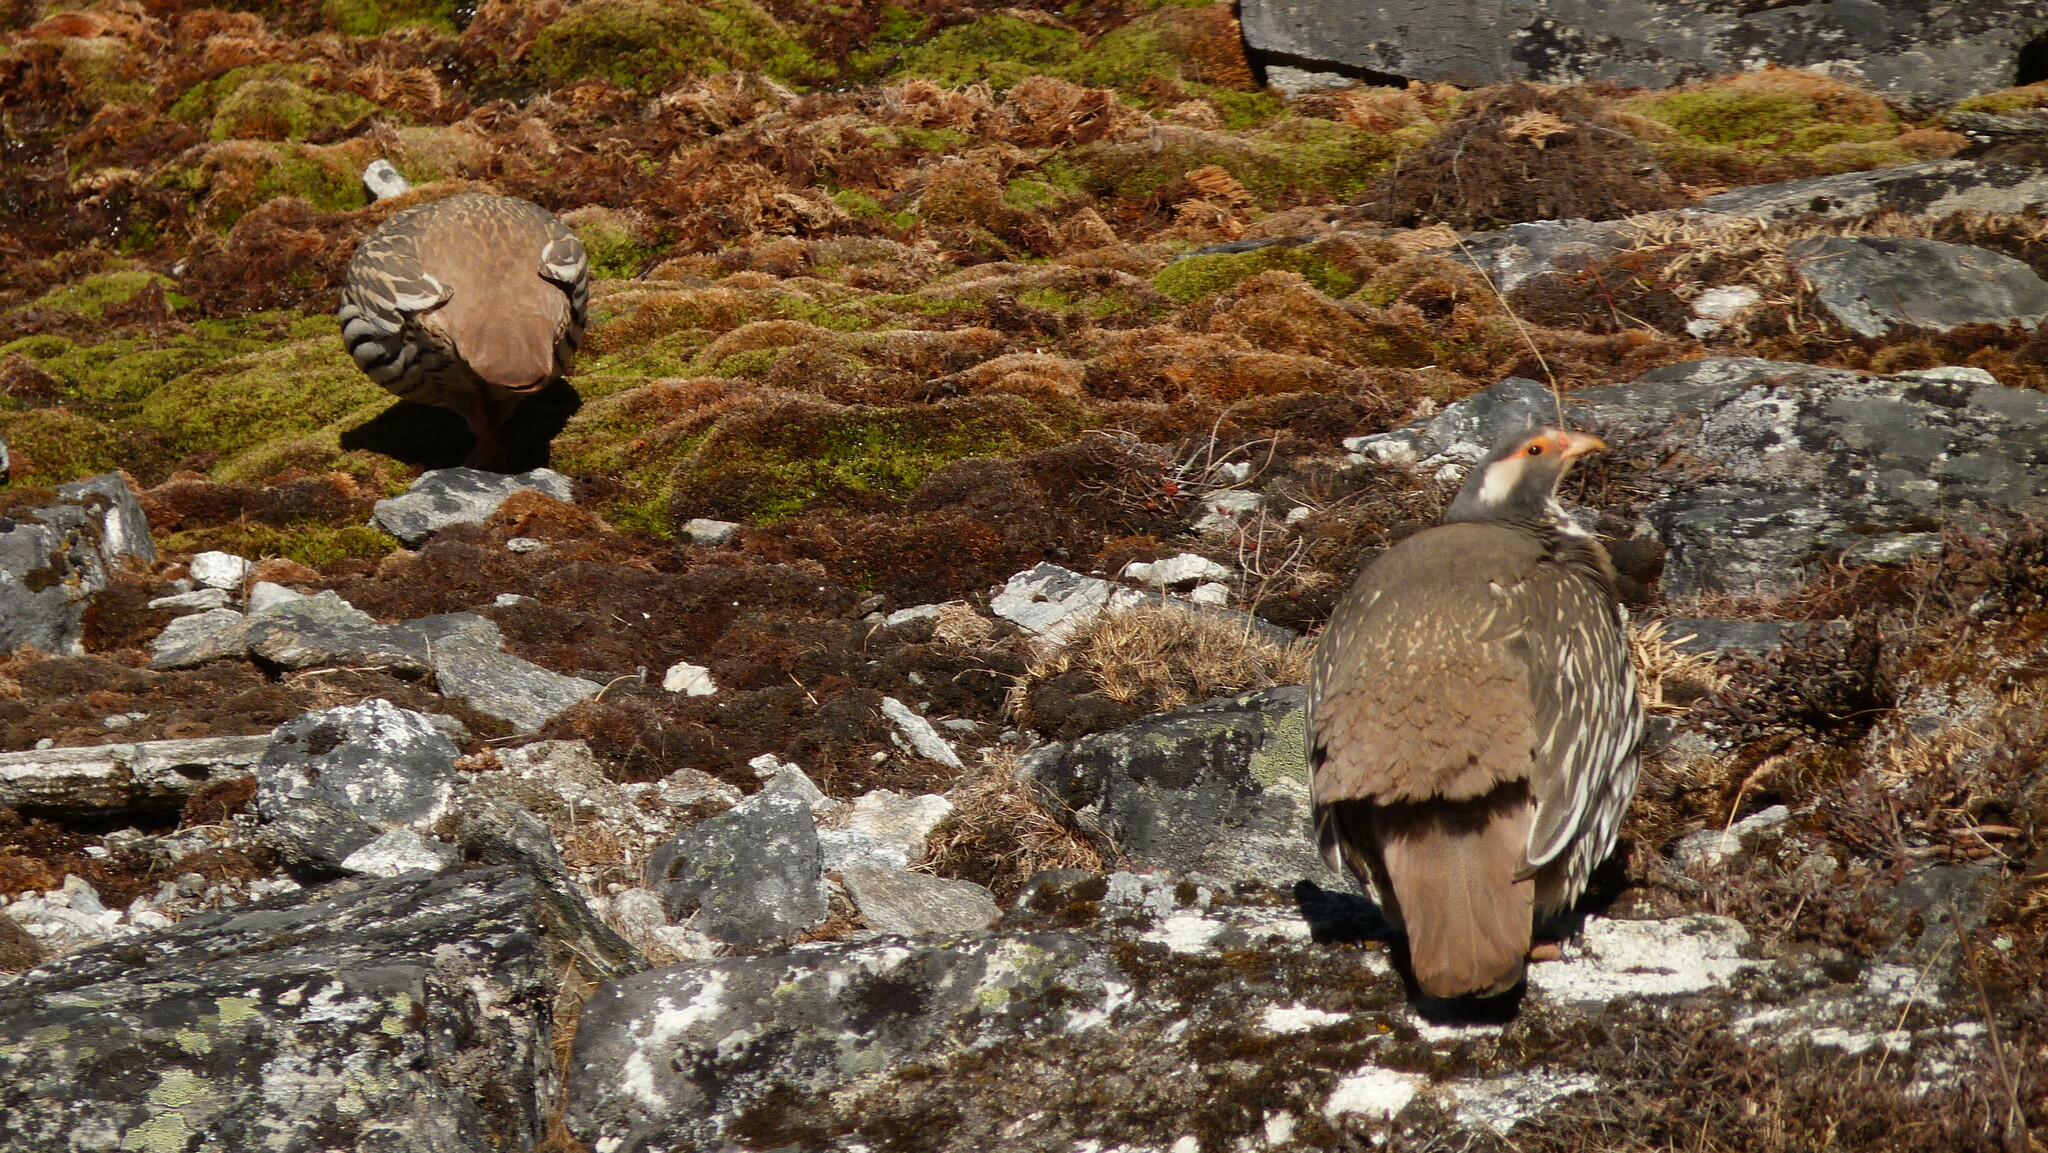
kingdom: Animalia
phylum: Chordata
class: Aves
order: Galliformes
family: Phasianidae
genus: Tetraogallus
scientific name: Tetraogallus tibetanus
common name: Tibetan snowcock
